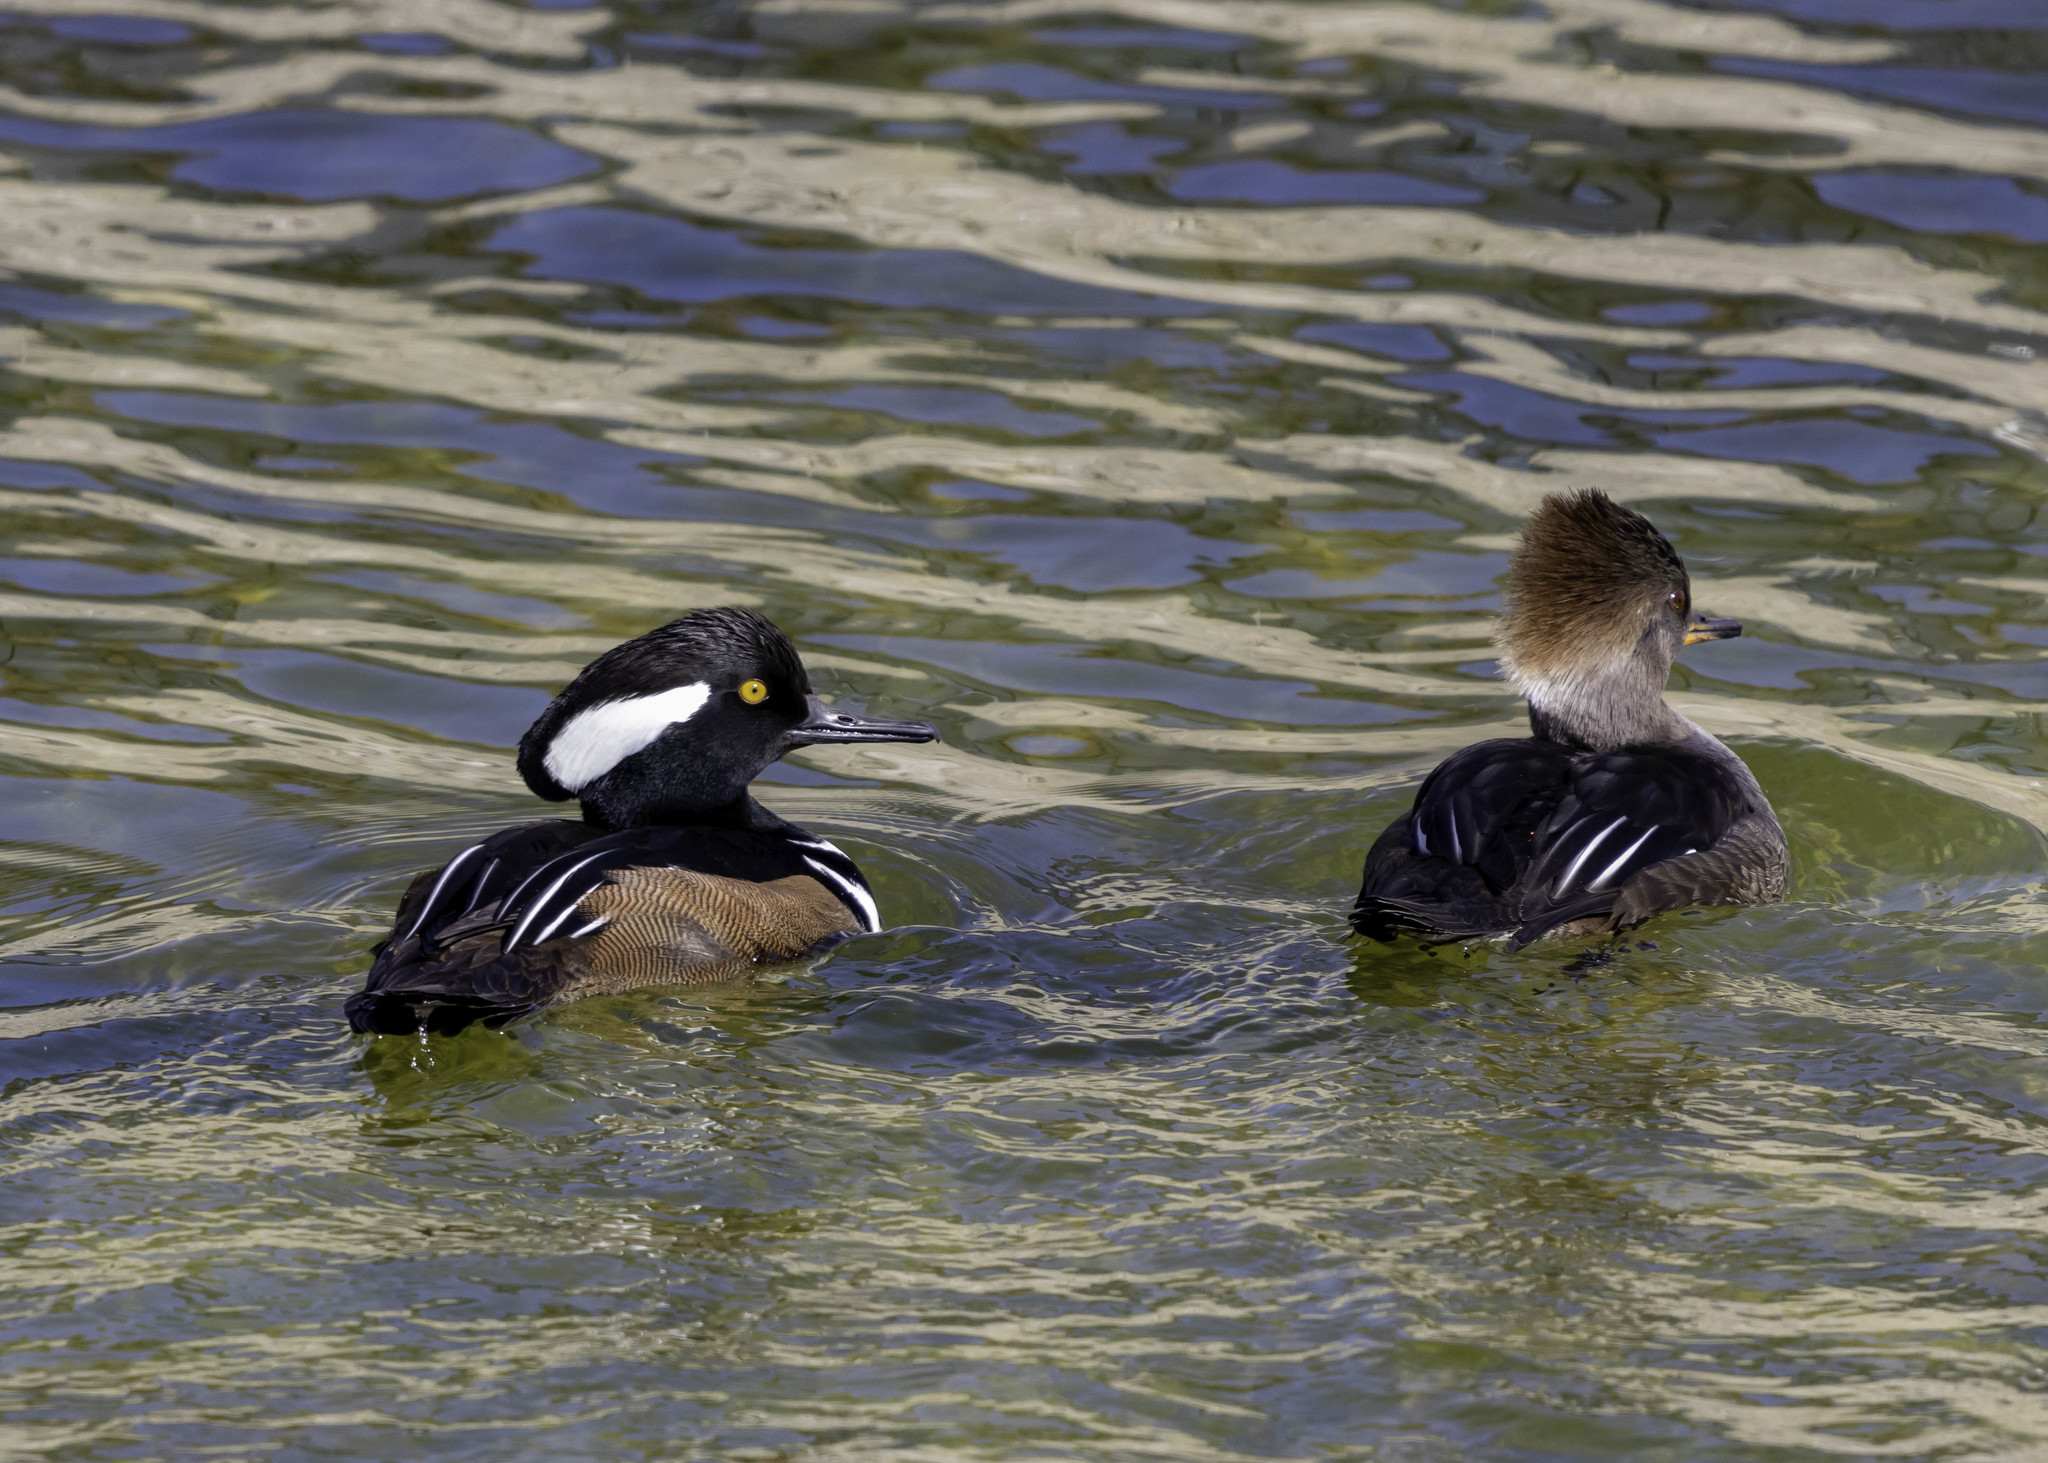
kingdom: Animalia
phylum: Chordata
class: Aves
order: Anseriformes
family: Anatidae
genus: Lophodytes
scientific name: Lophodytes cucullatus
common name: Hooded merganser
